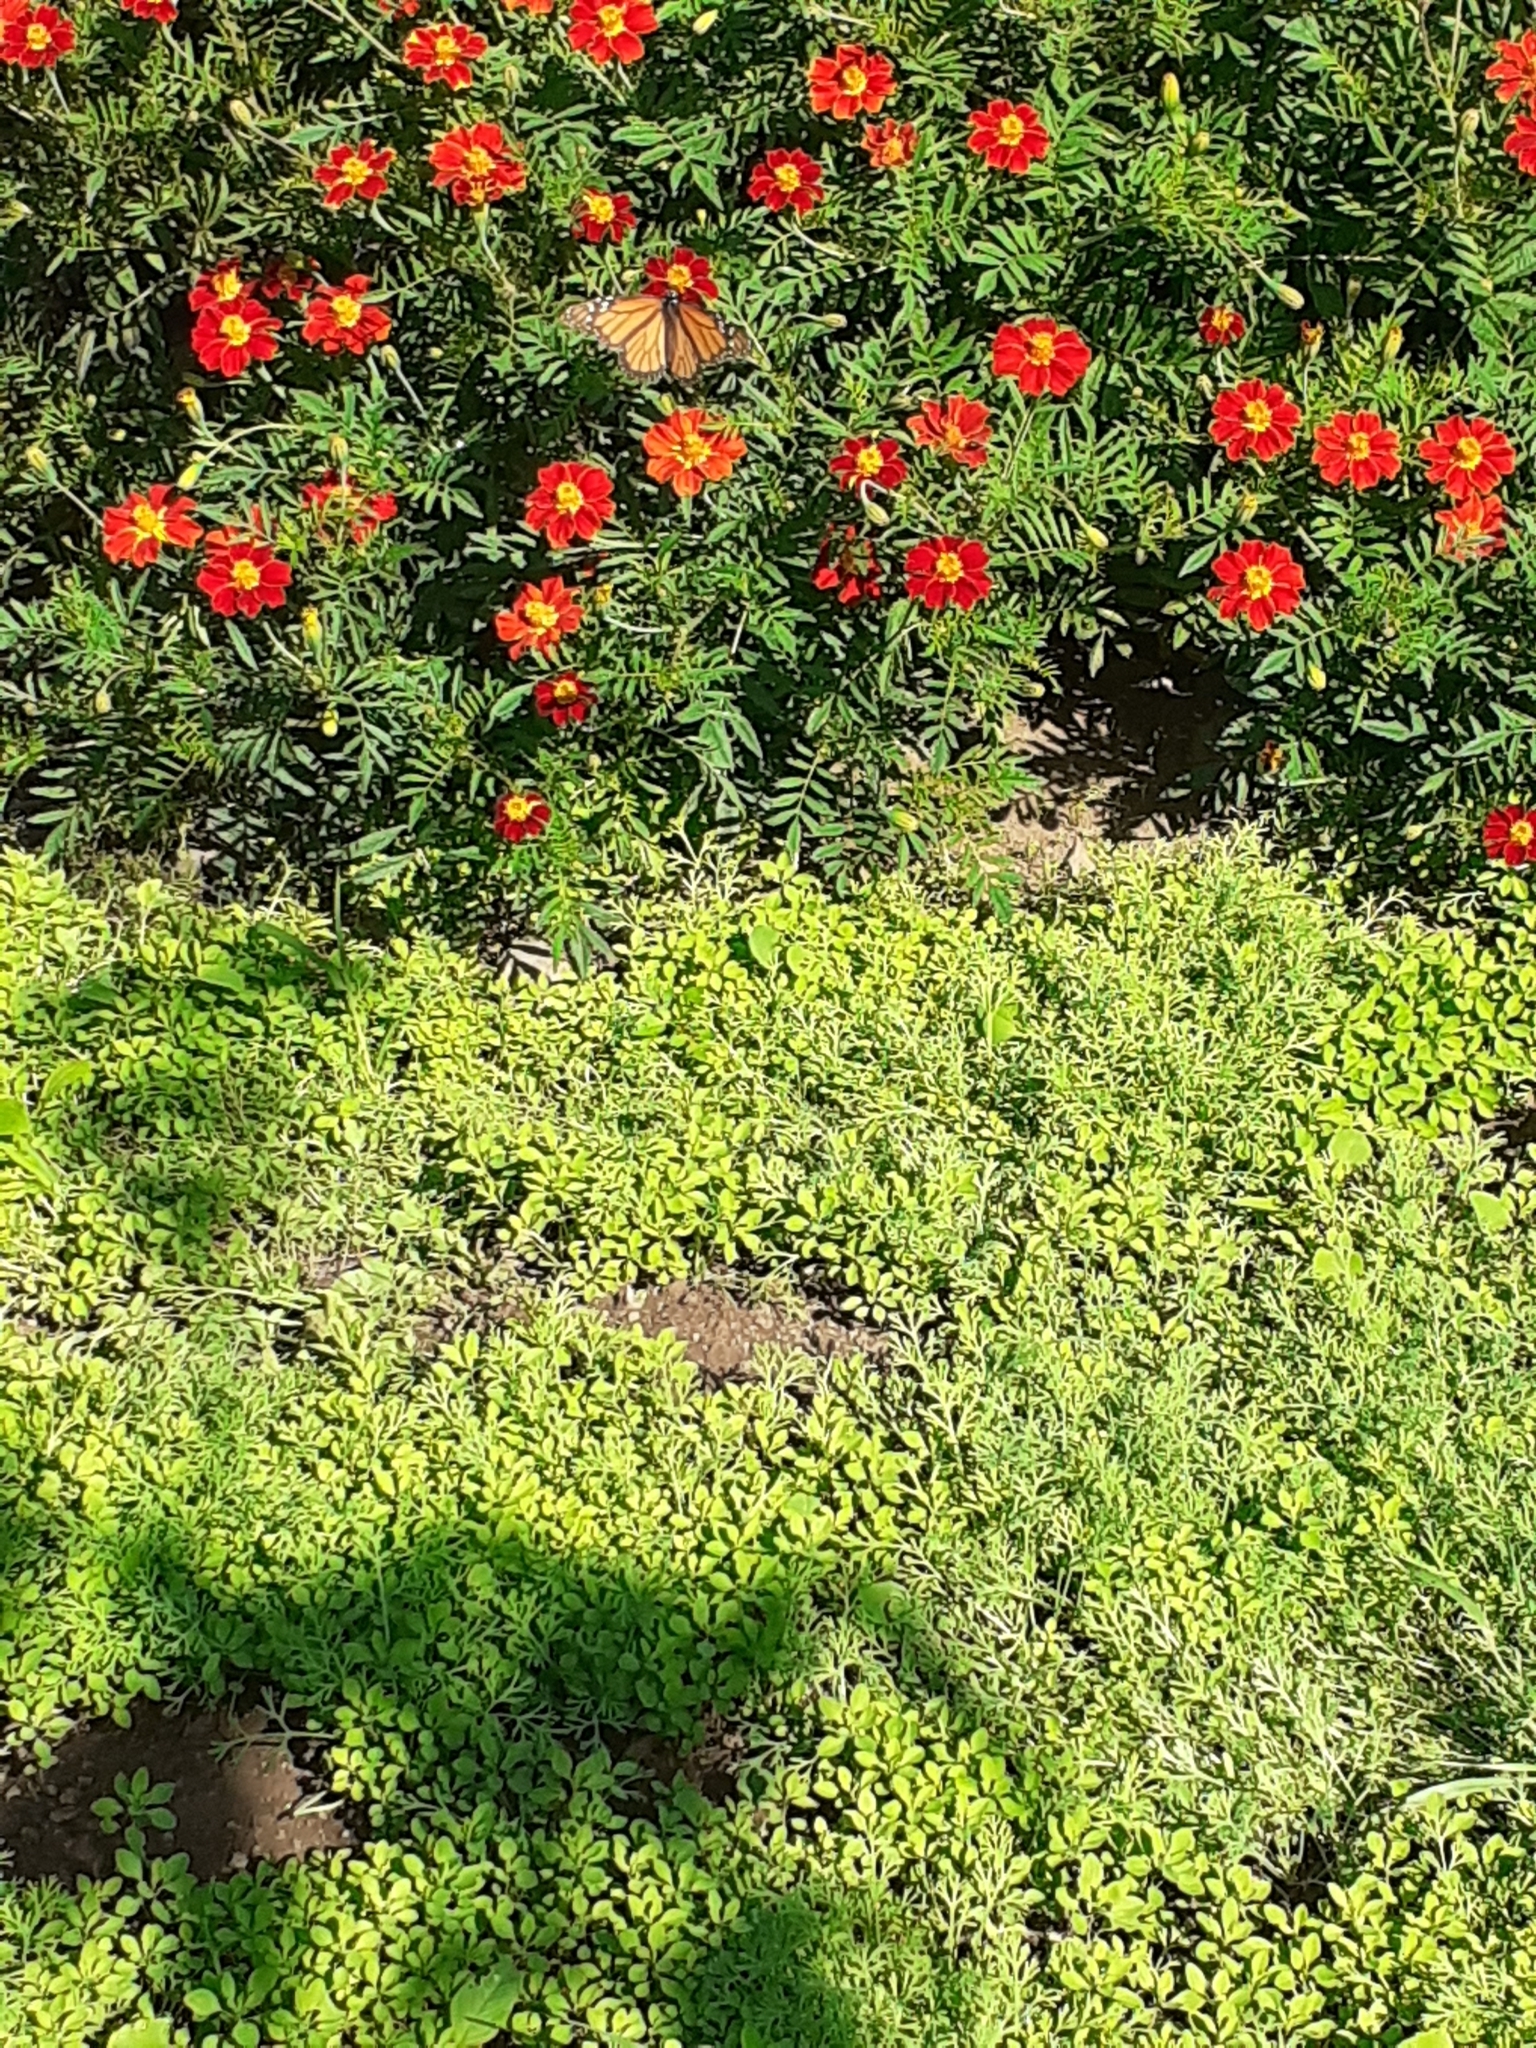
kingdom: Animalia
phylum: Arthropoda
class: Insecta
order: Lepidoptera
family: Nymphalidae
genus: Danaus
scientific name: Danaus plexippus
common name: Monarch
